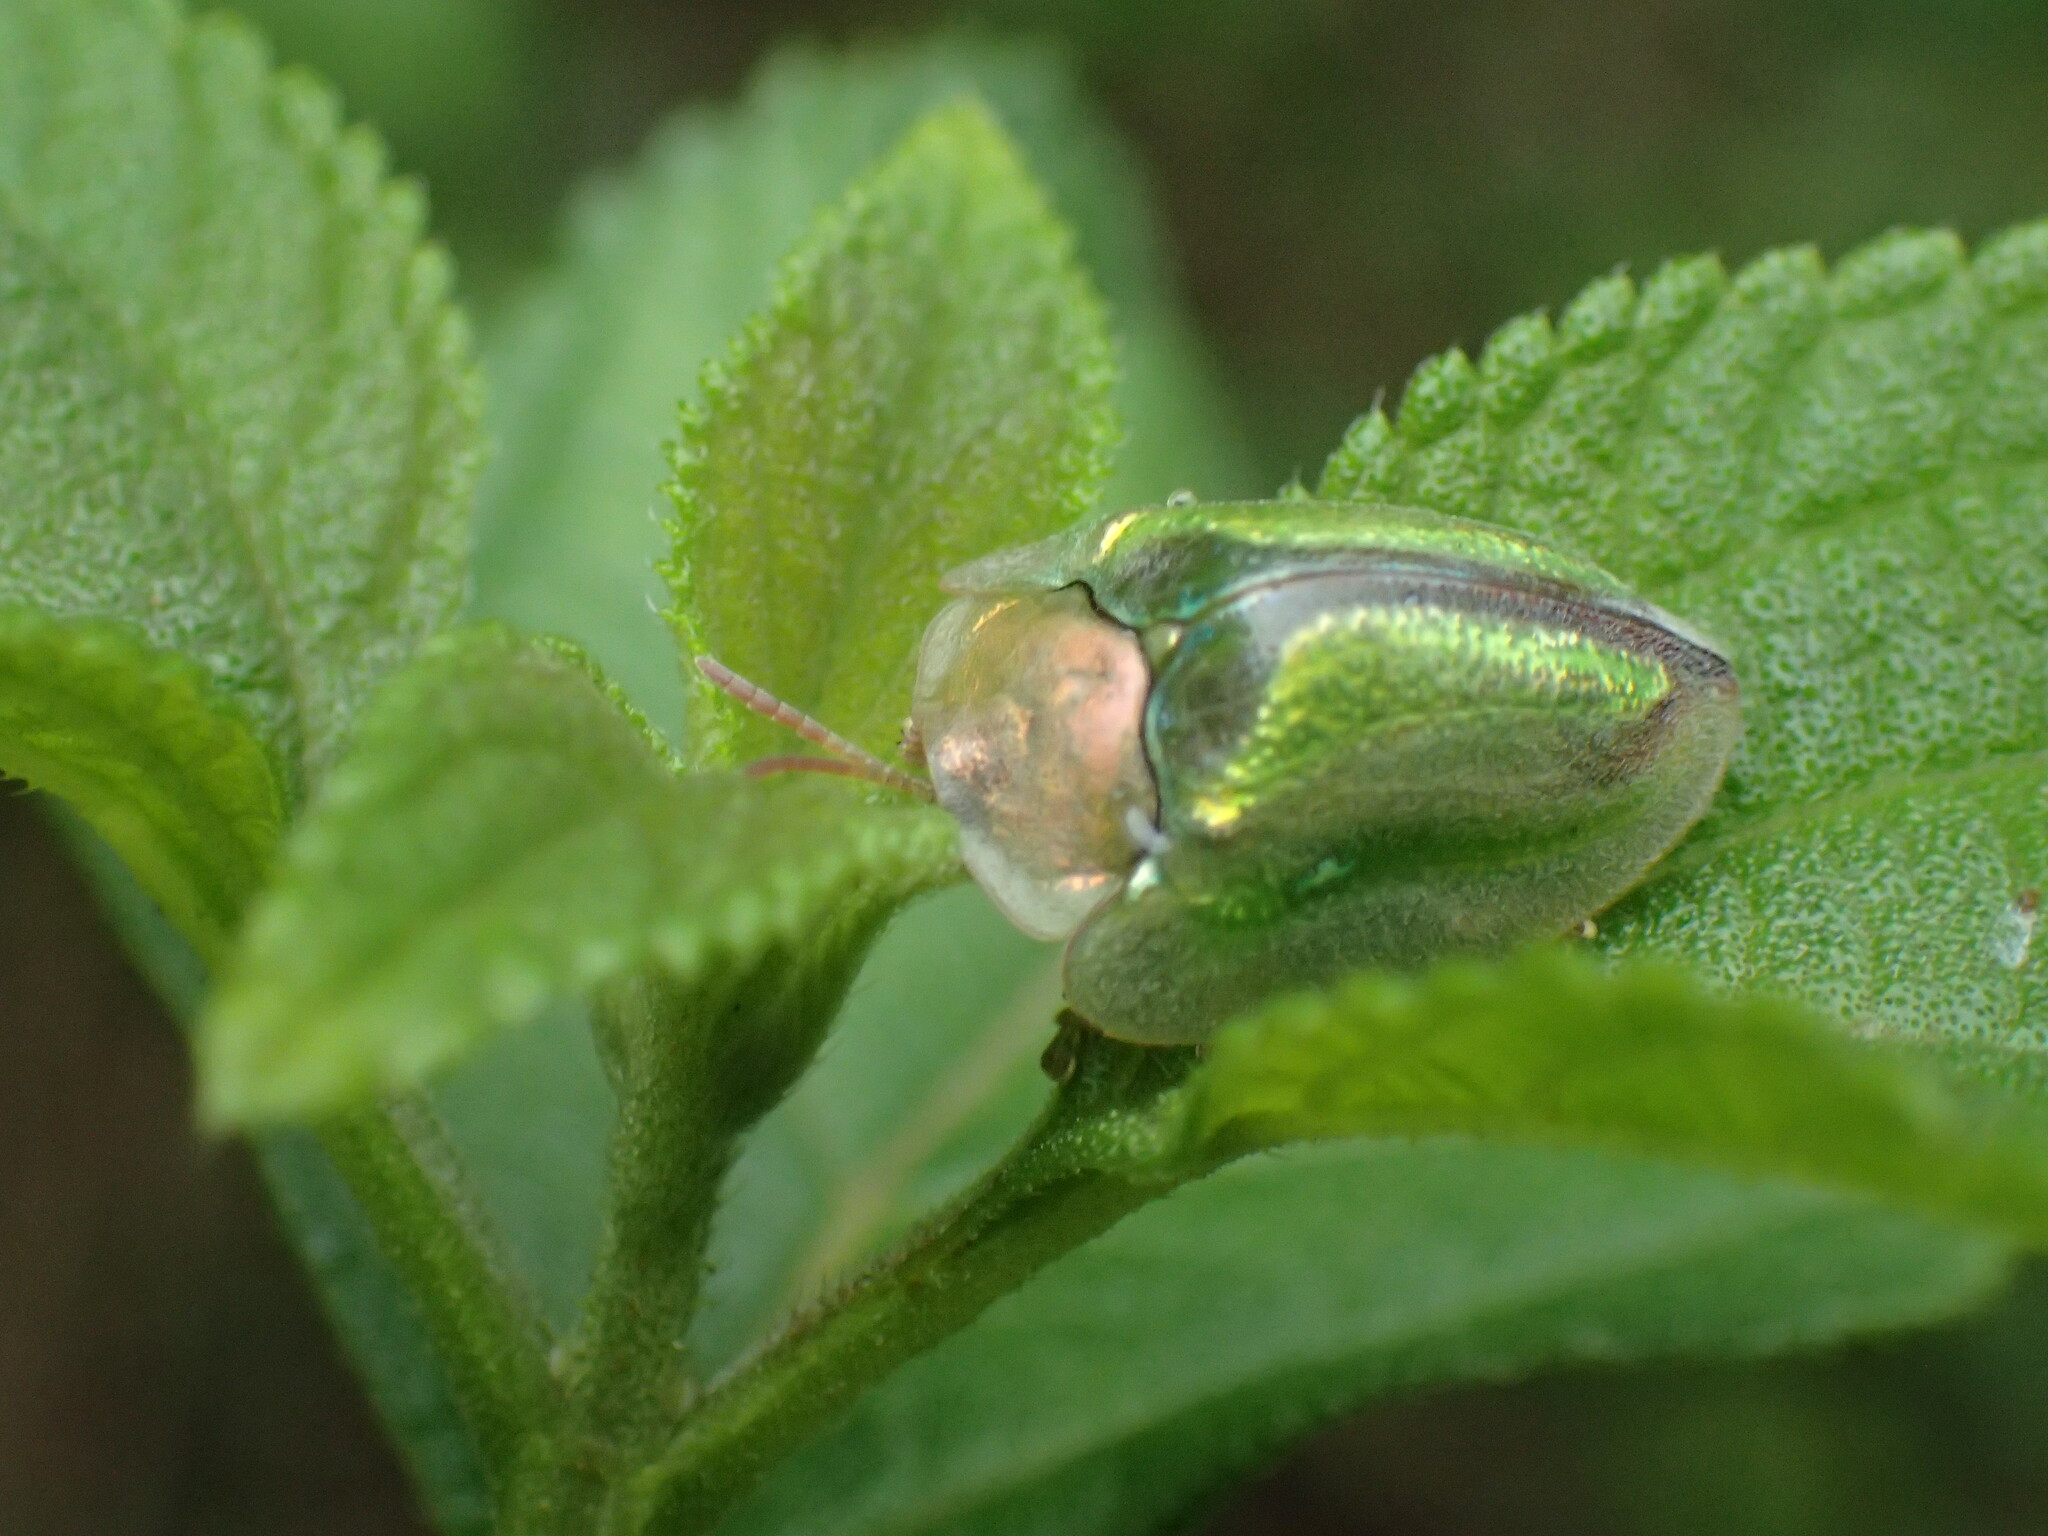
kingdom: Animalia
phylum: Arthropoda
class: Insecta
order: Coleoptera
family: Chrysomelidae
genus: Basipta
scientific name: Basipta stolida
